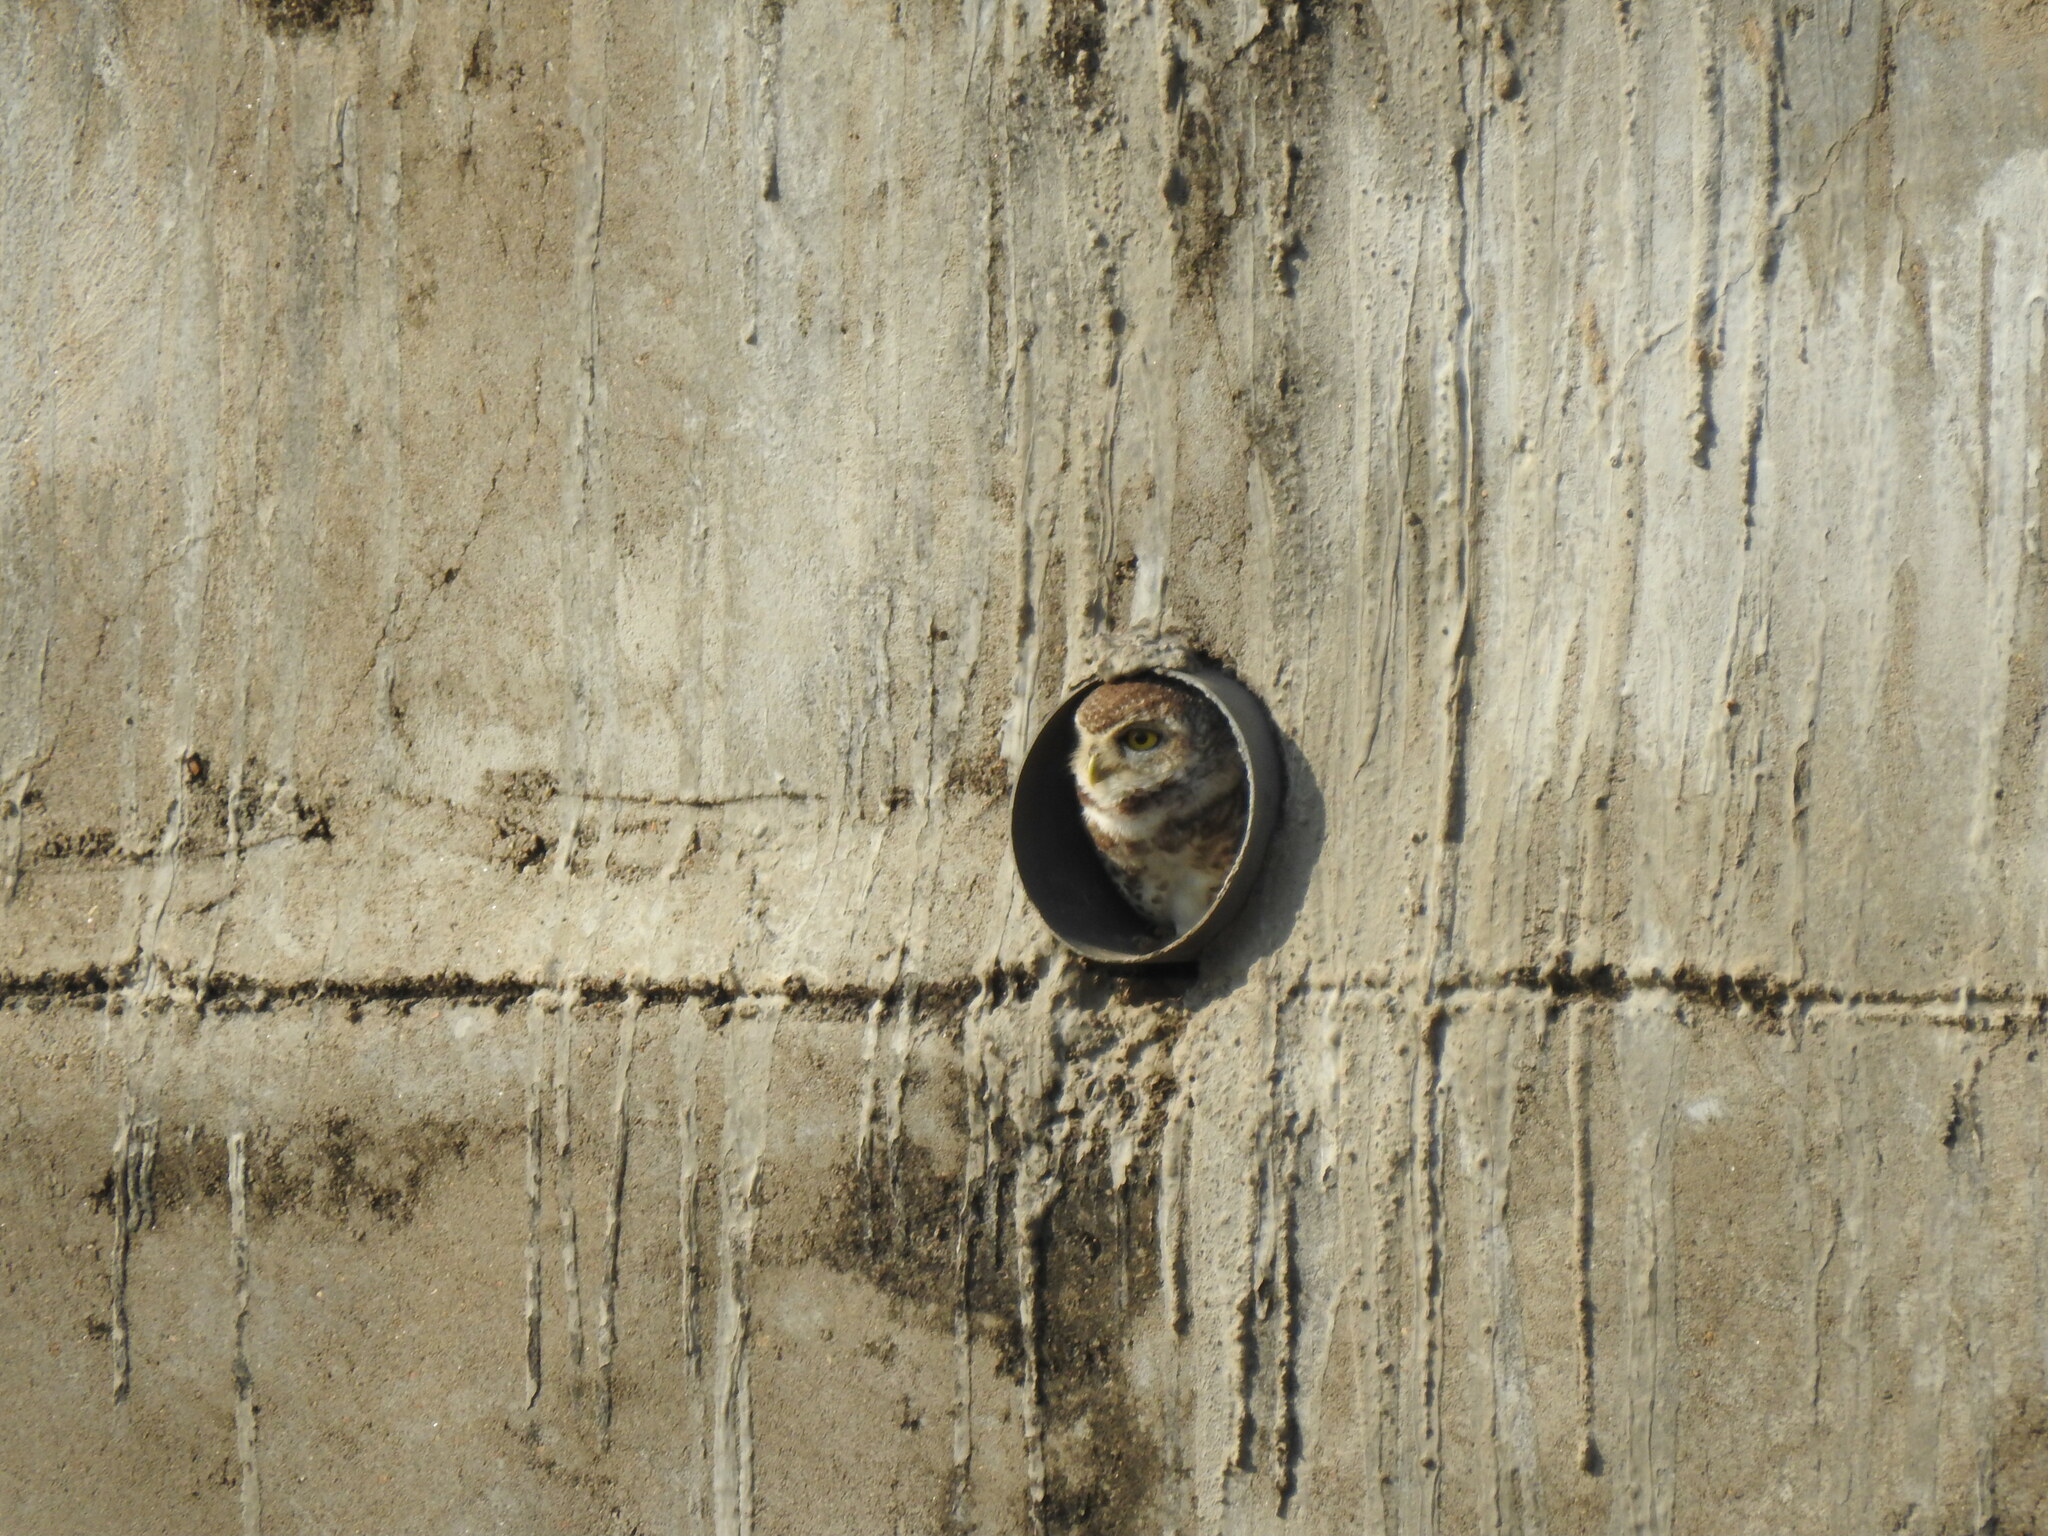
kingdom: Animalia
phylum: Chordata
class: Aves
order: Strigiformes
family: Strigidae
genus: Athene
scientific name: Athene brama
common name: Spotted owlet
